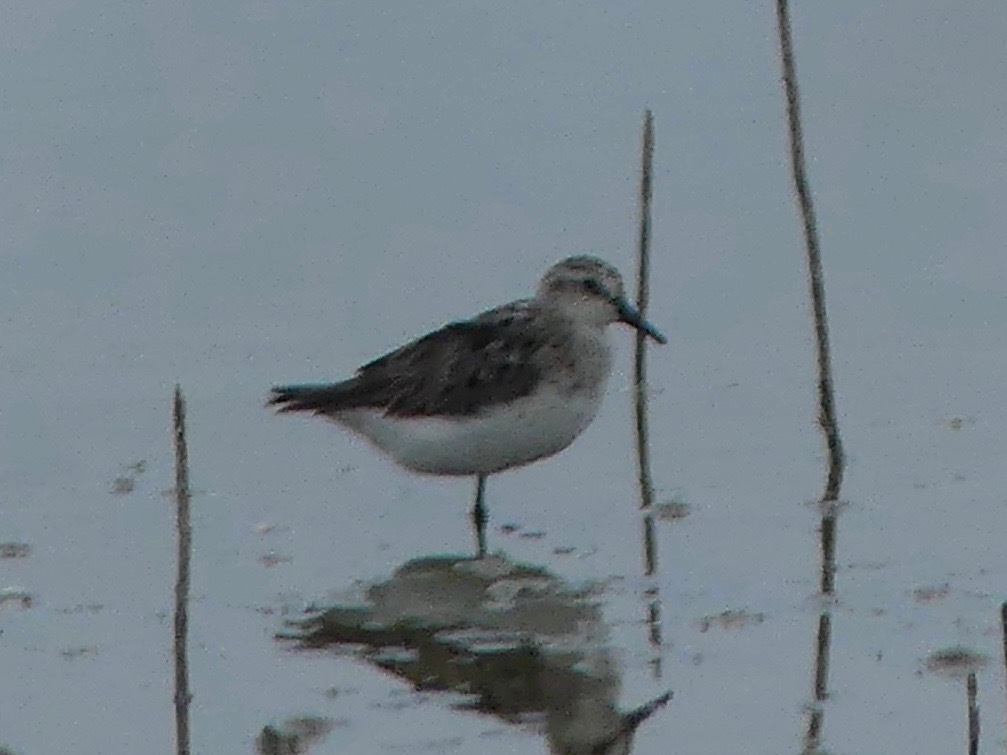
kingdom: Animalia
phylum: Chordata
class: Aves
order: Charadriiformes
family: Scolopacidae
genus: Calidris
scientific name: Calidris pusilla
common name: Semipalmated sandpiper
